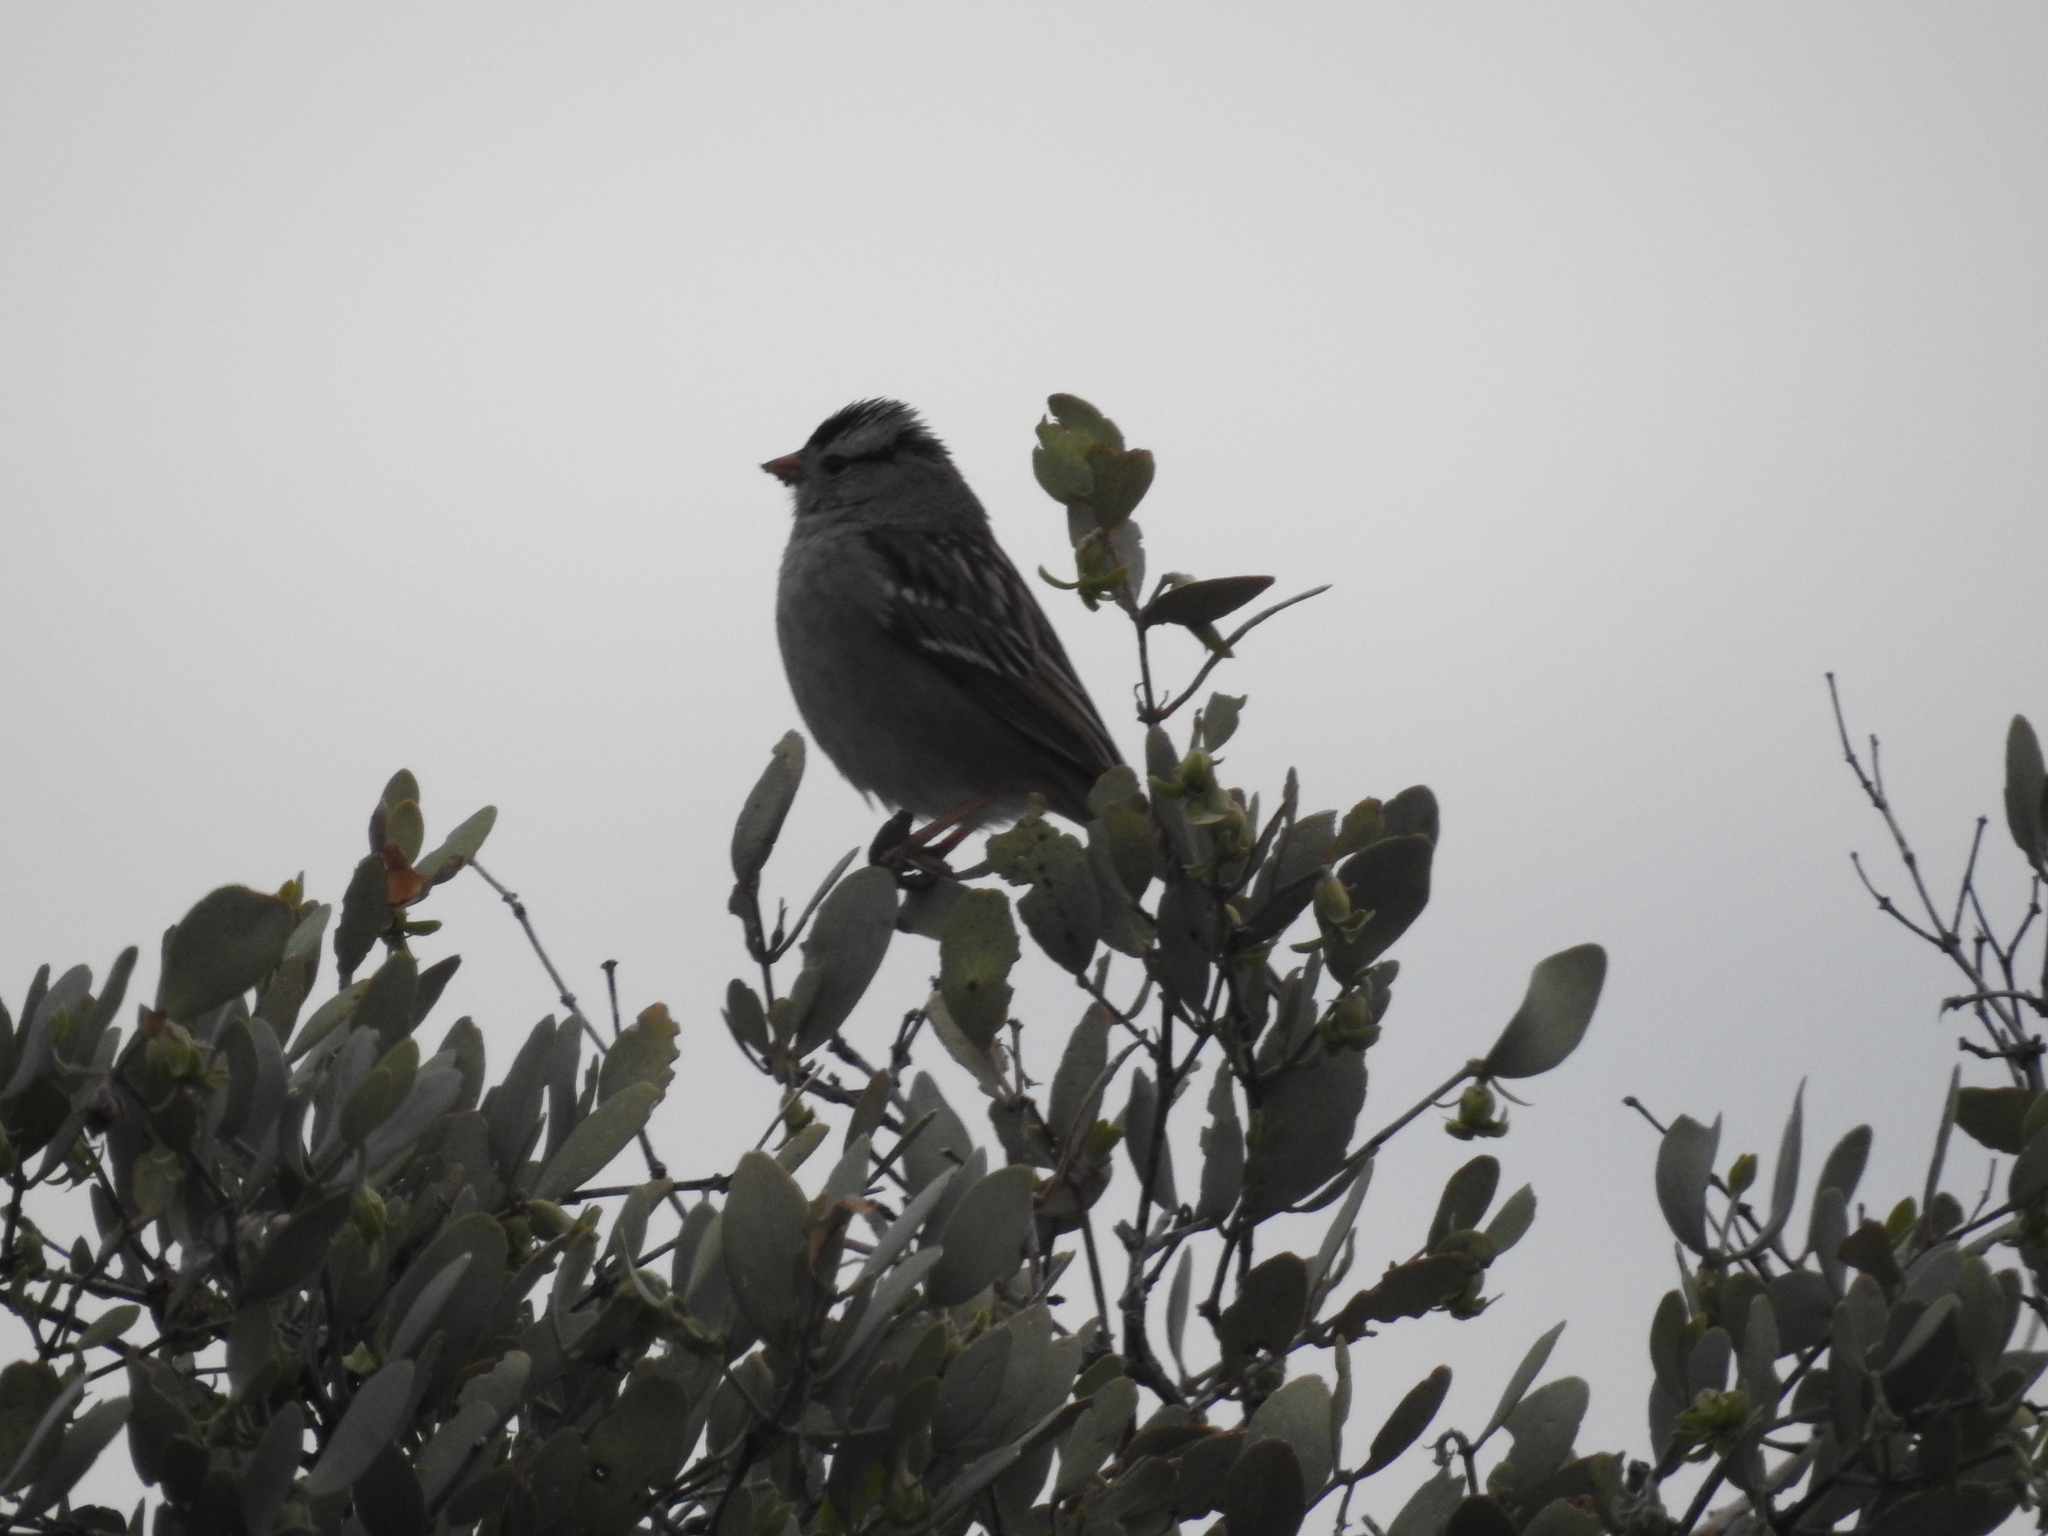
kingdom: Animalia
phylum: Chordata
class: Aves
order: Passeriformes
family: Passerellidae
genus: Zonotrichia
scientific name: Zonotrichia leucophrys
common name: White-crowned sparrow
